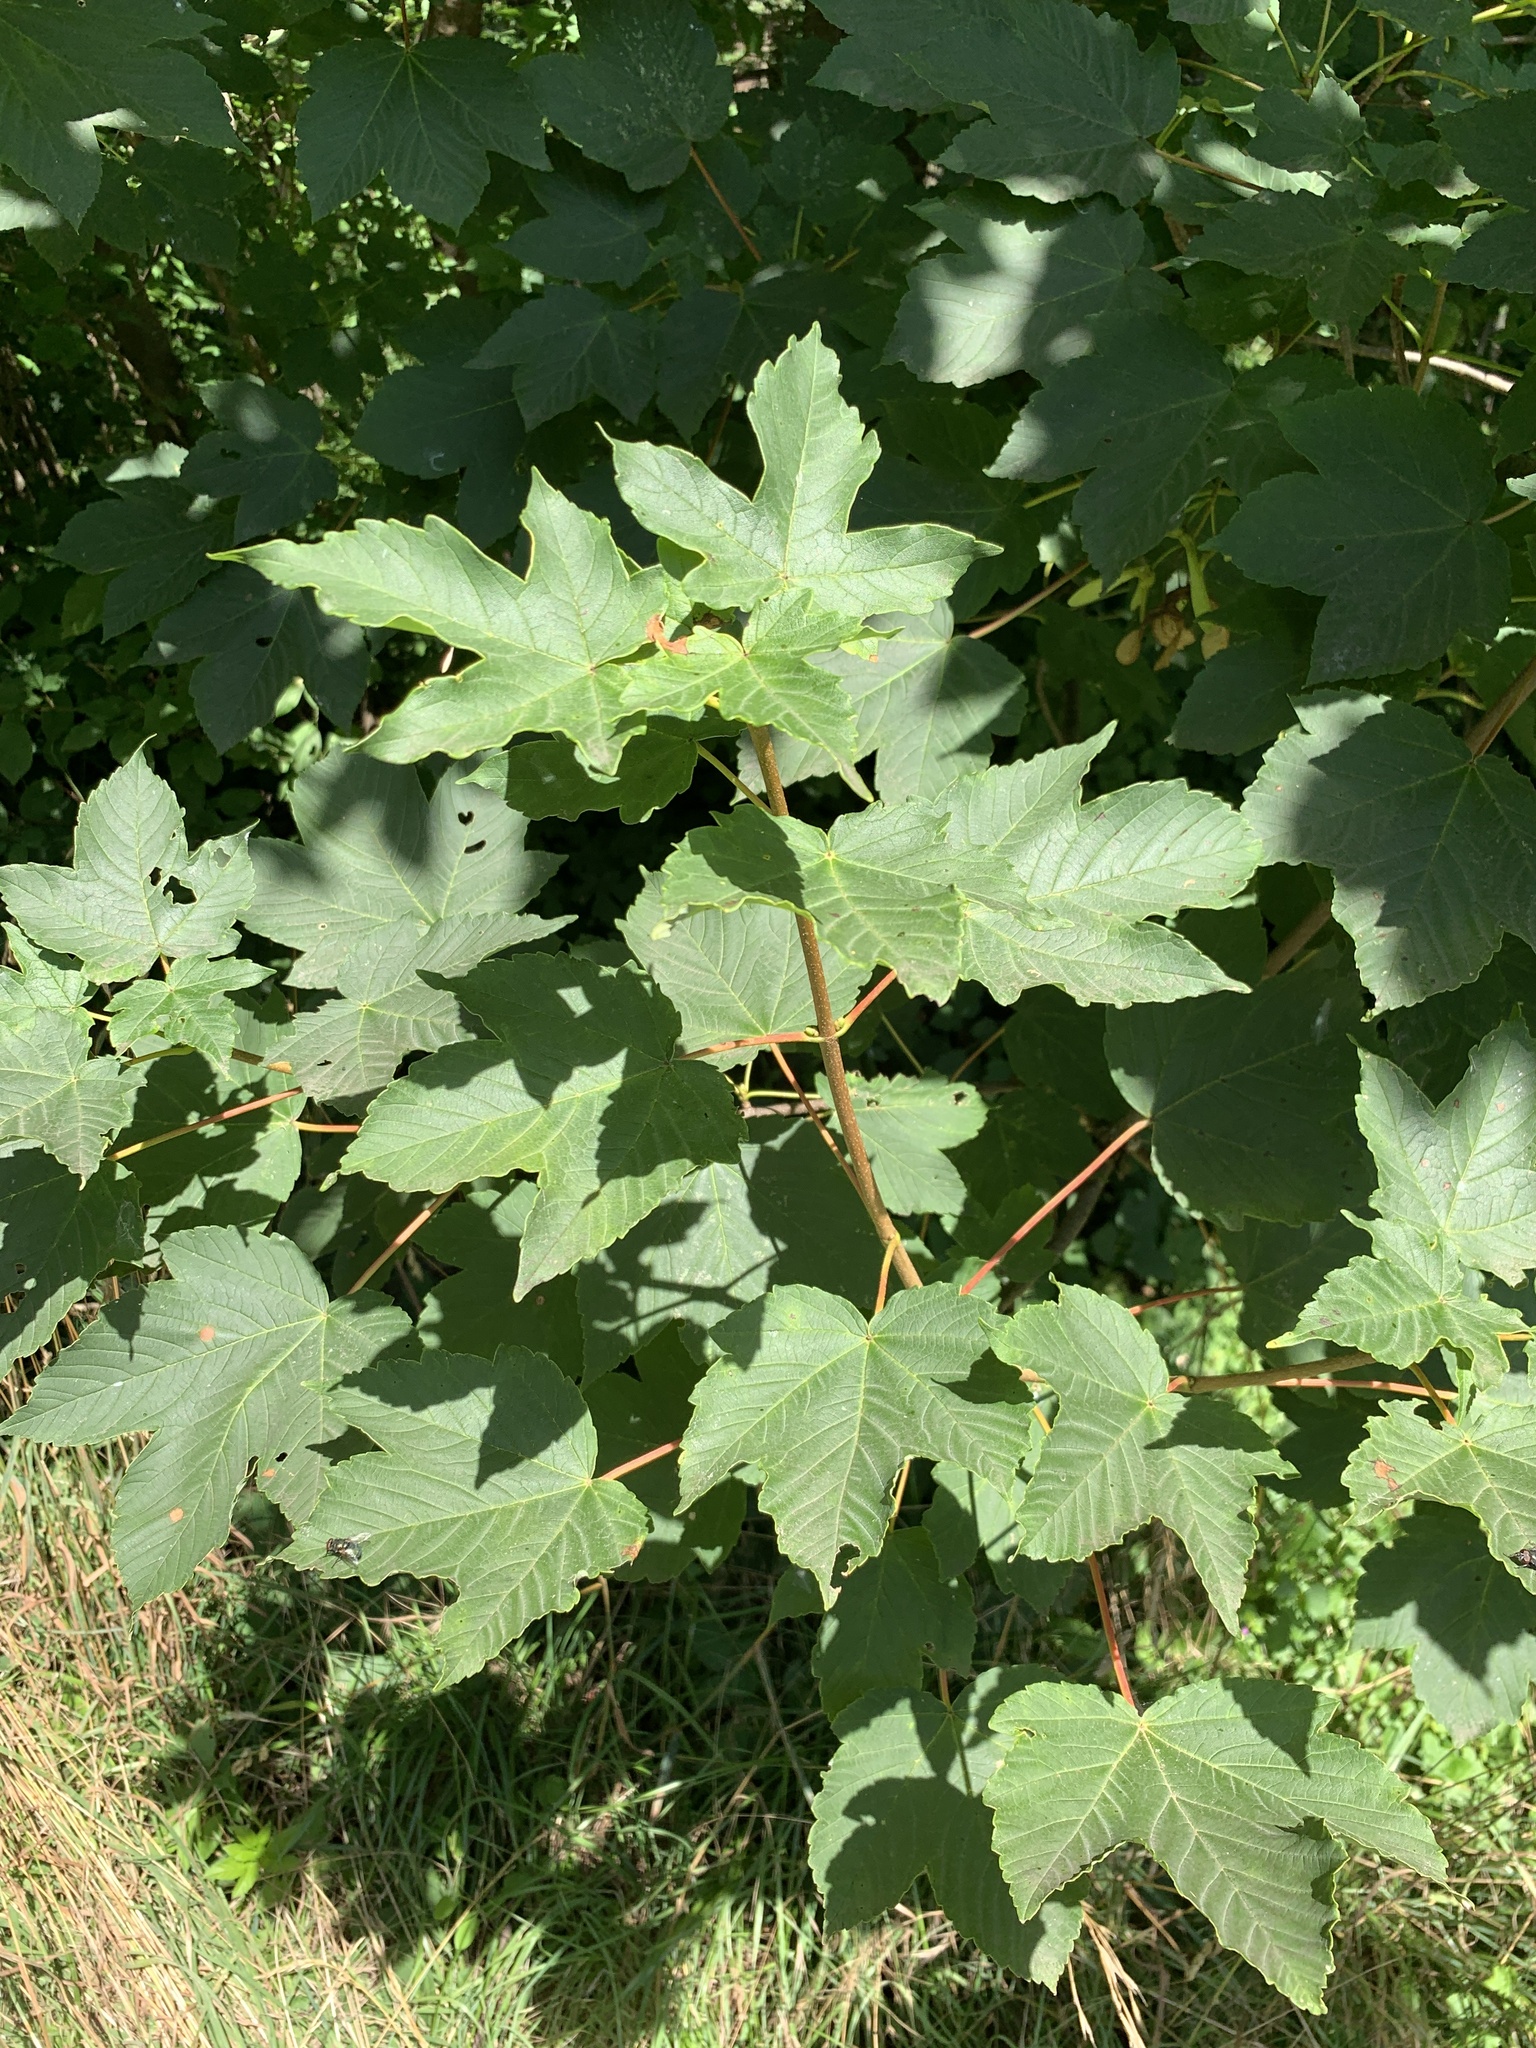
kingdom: Plantae
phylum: Tracheophyta
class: Magnoliopsida
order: Sapindales
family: Sapindaceae
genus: Acer
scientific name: Acer pseudoplatanus
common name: Sycamore
